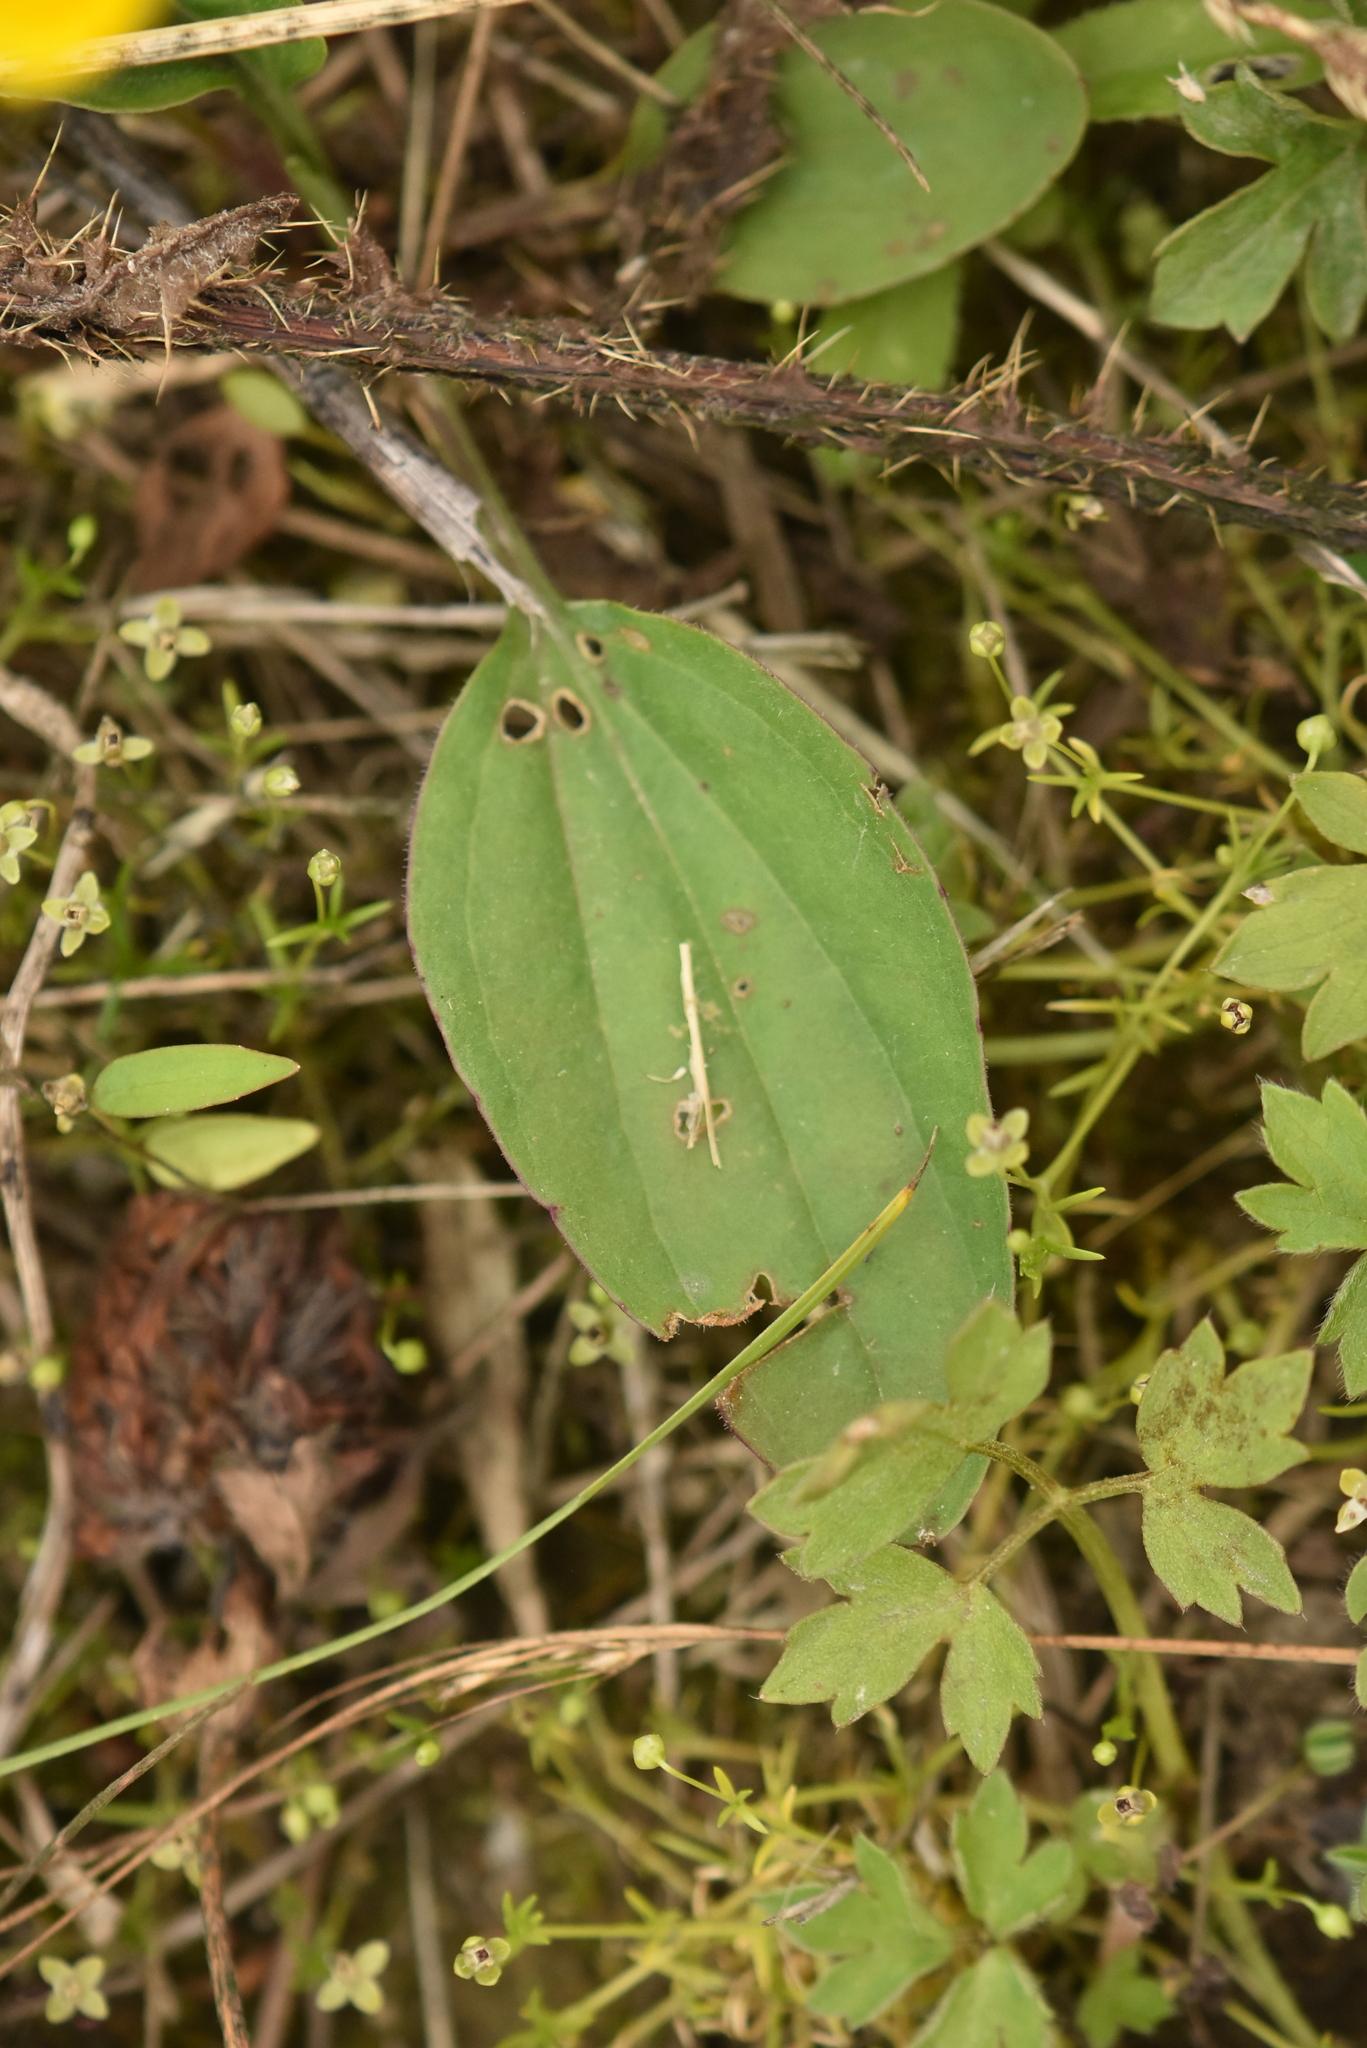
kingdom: Plantae
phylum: Tracheophyta
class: Magnoliopsida
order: Lamiales
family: Plantaginaceae
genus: Plantago
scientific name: Plantago major
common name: Common plantain
